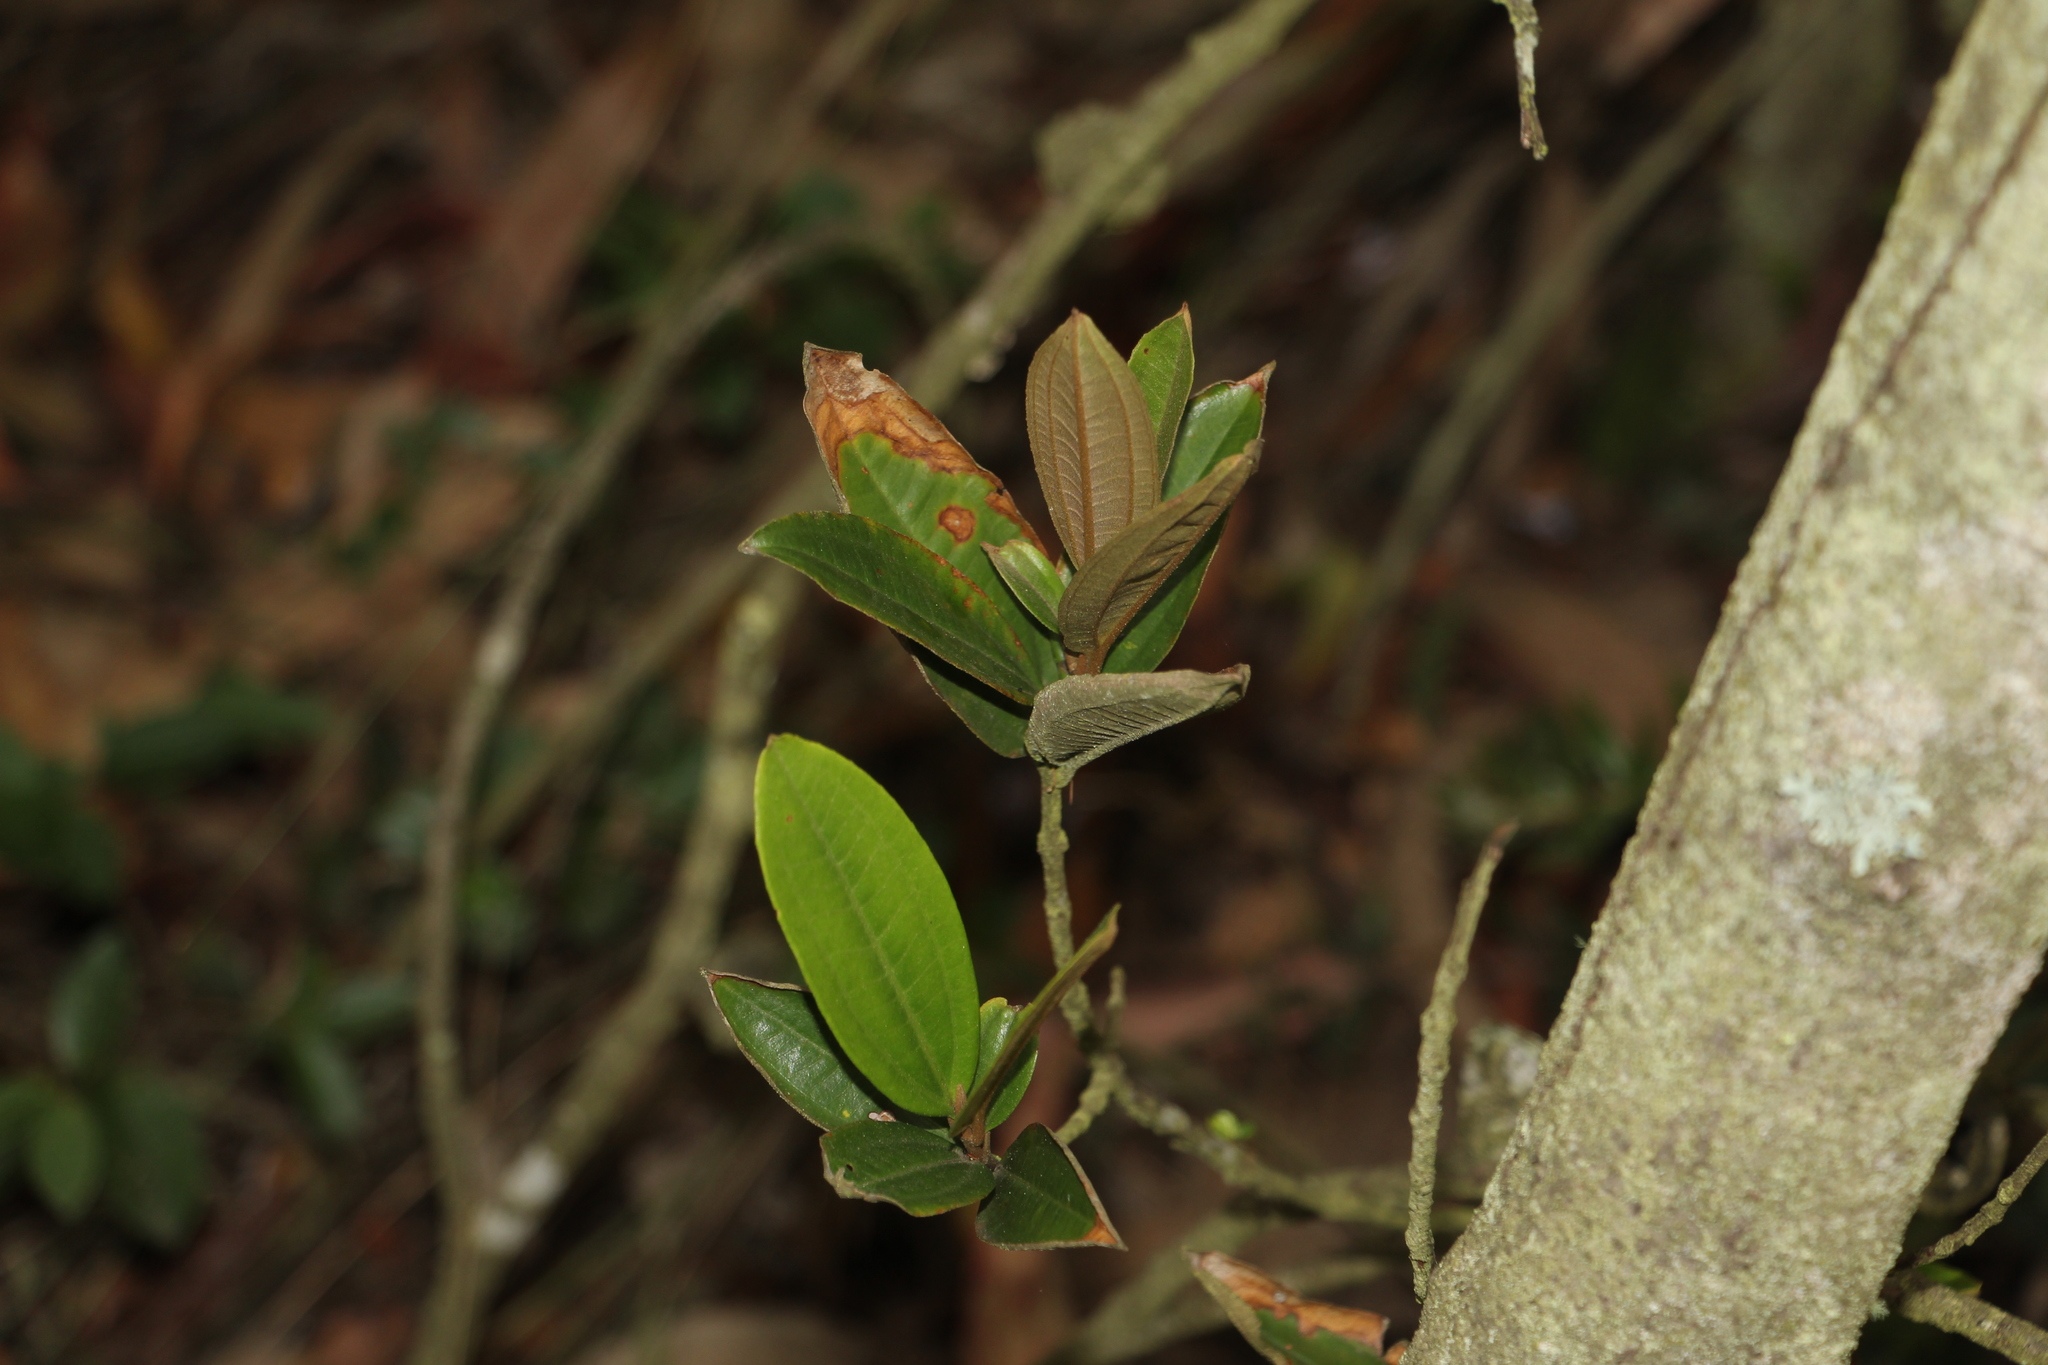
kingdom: Plantae
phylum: Tracheophyta
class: Magnoliopsida
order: Myrtales
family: Melastomataceae
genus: Miconia
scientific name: Miconia squamulosa
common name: Squamulose maya
